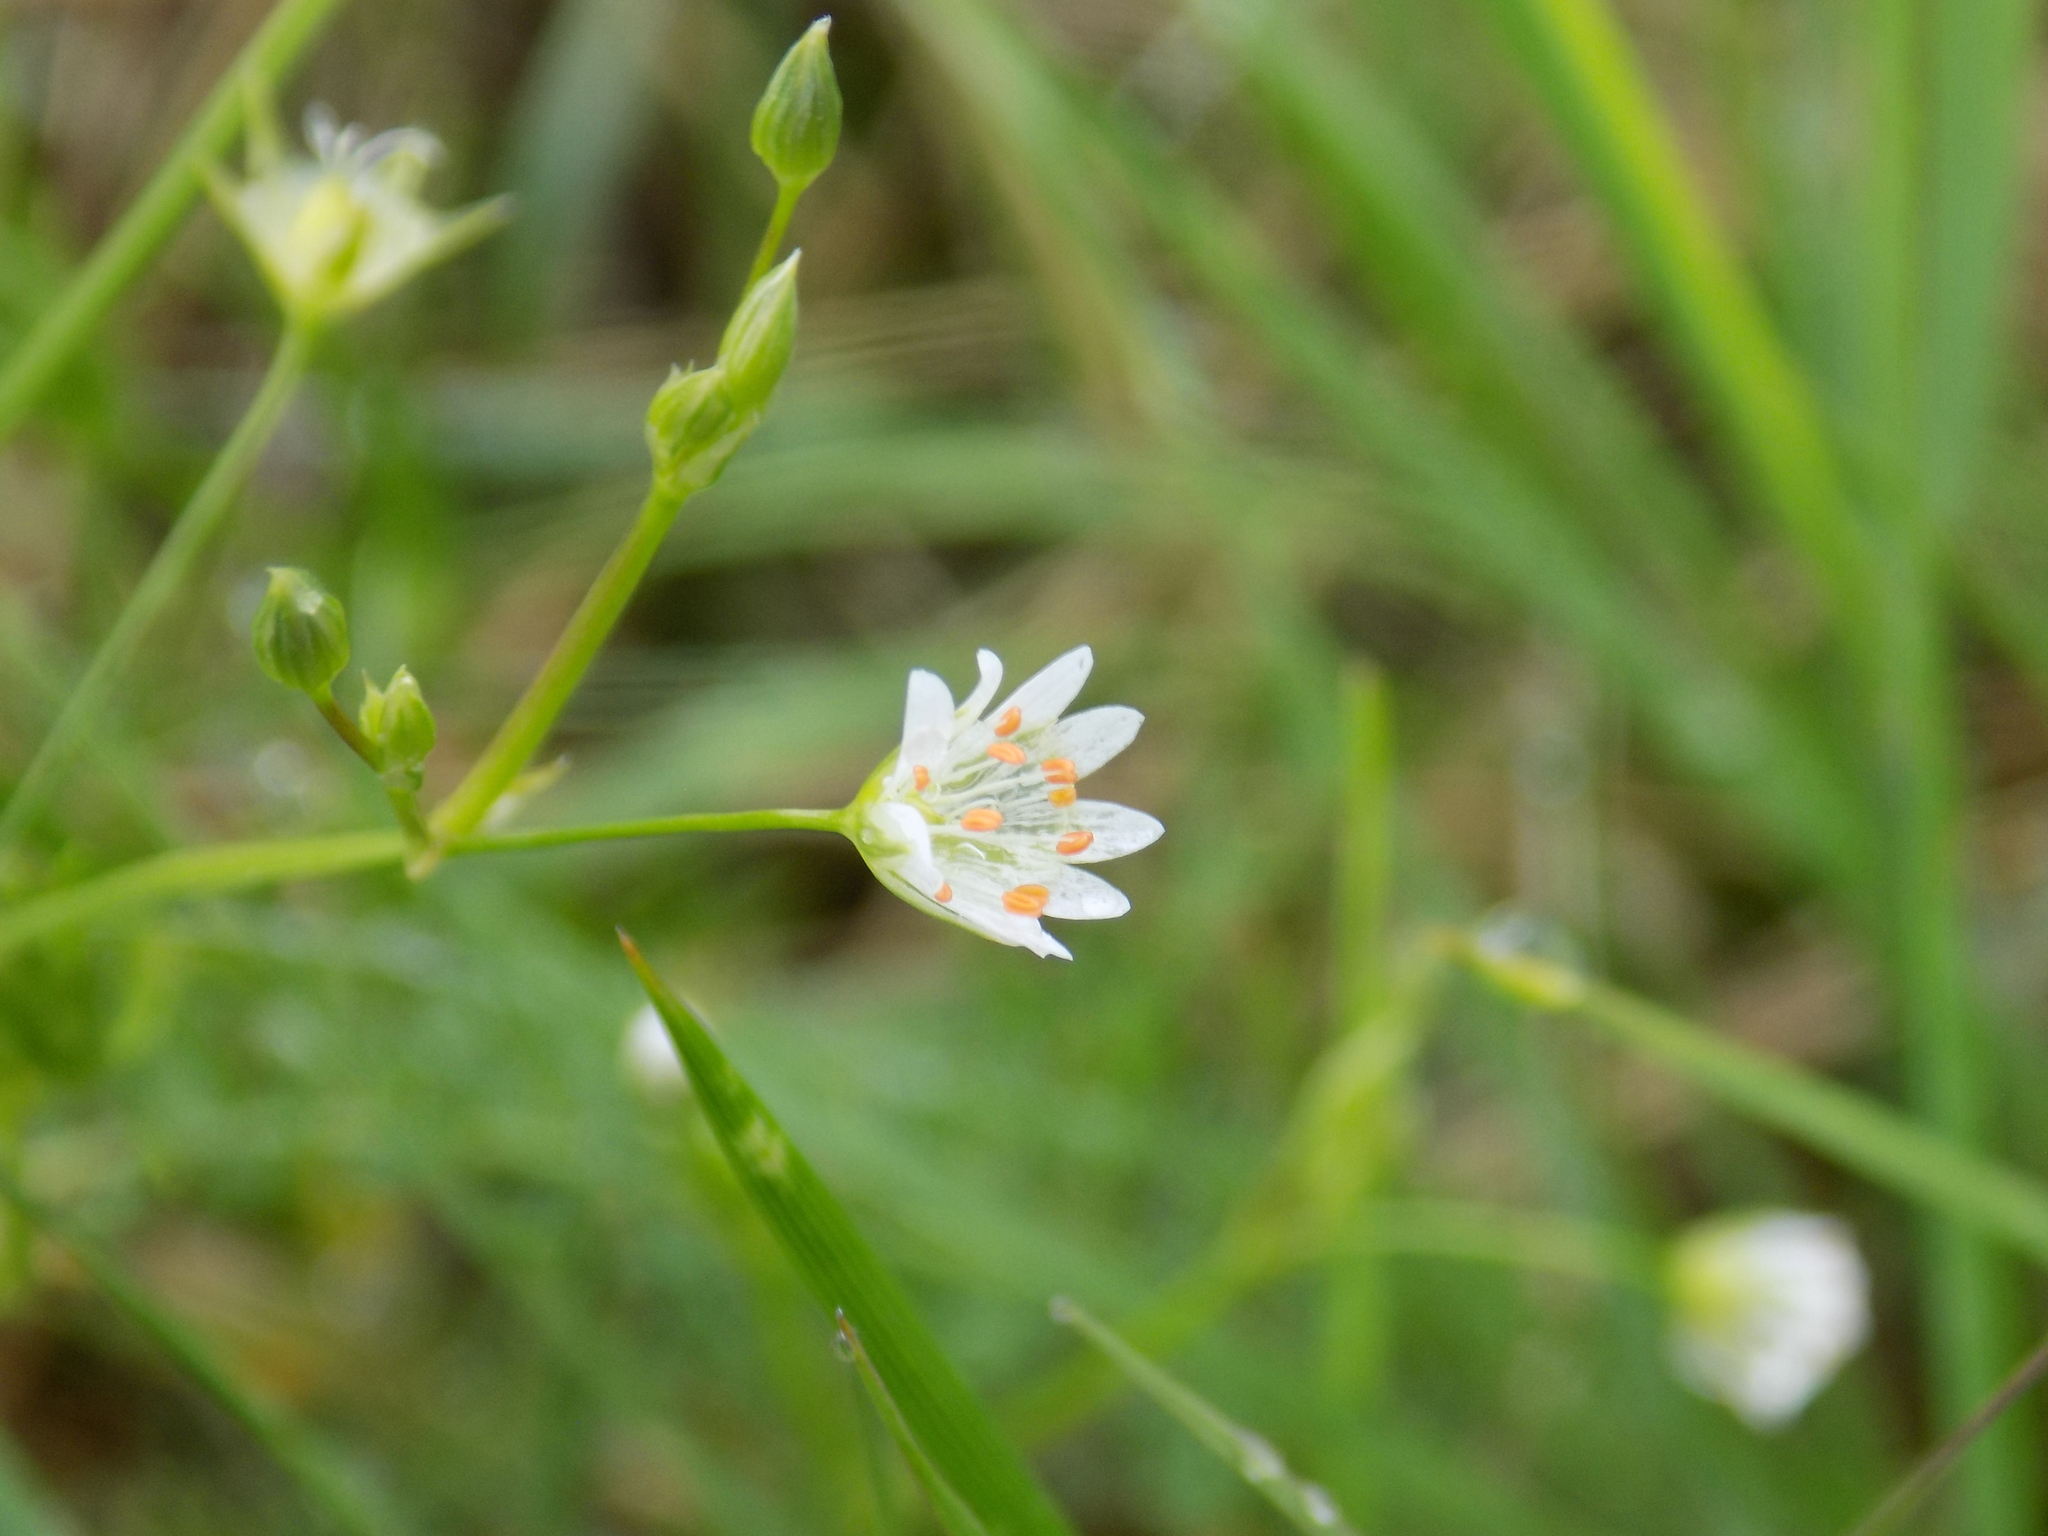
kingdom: Plantae
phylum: Tracheophyta
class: Magnoliopsida
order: Caryophyllales
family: Caryophyllaceae
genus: Stellaria
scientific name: Stellaria graminea
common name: Grass-like starwort
